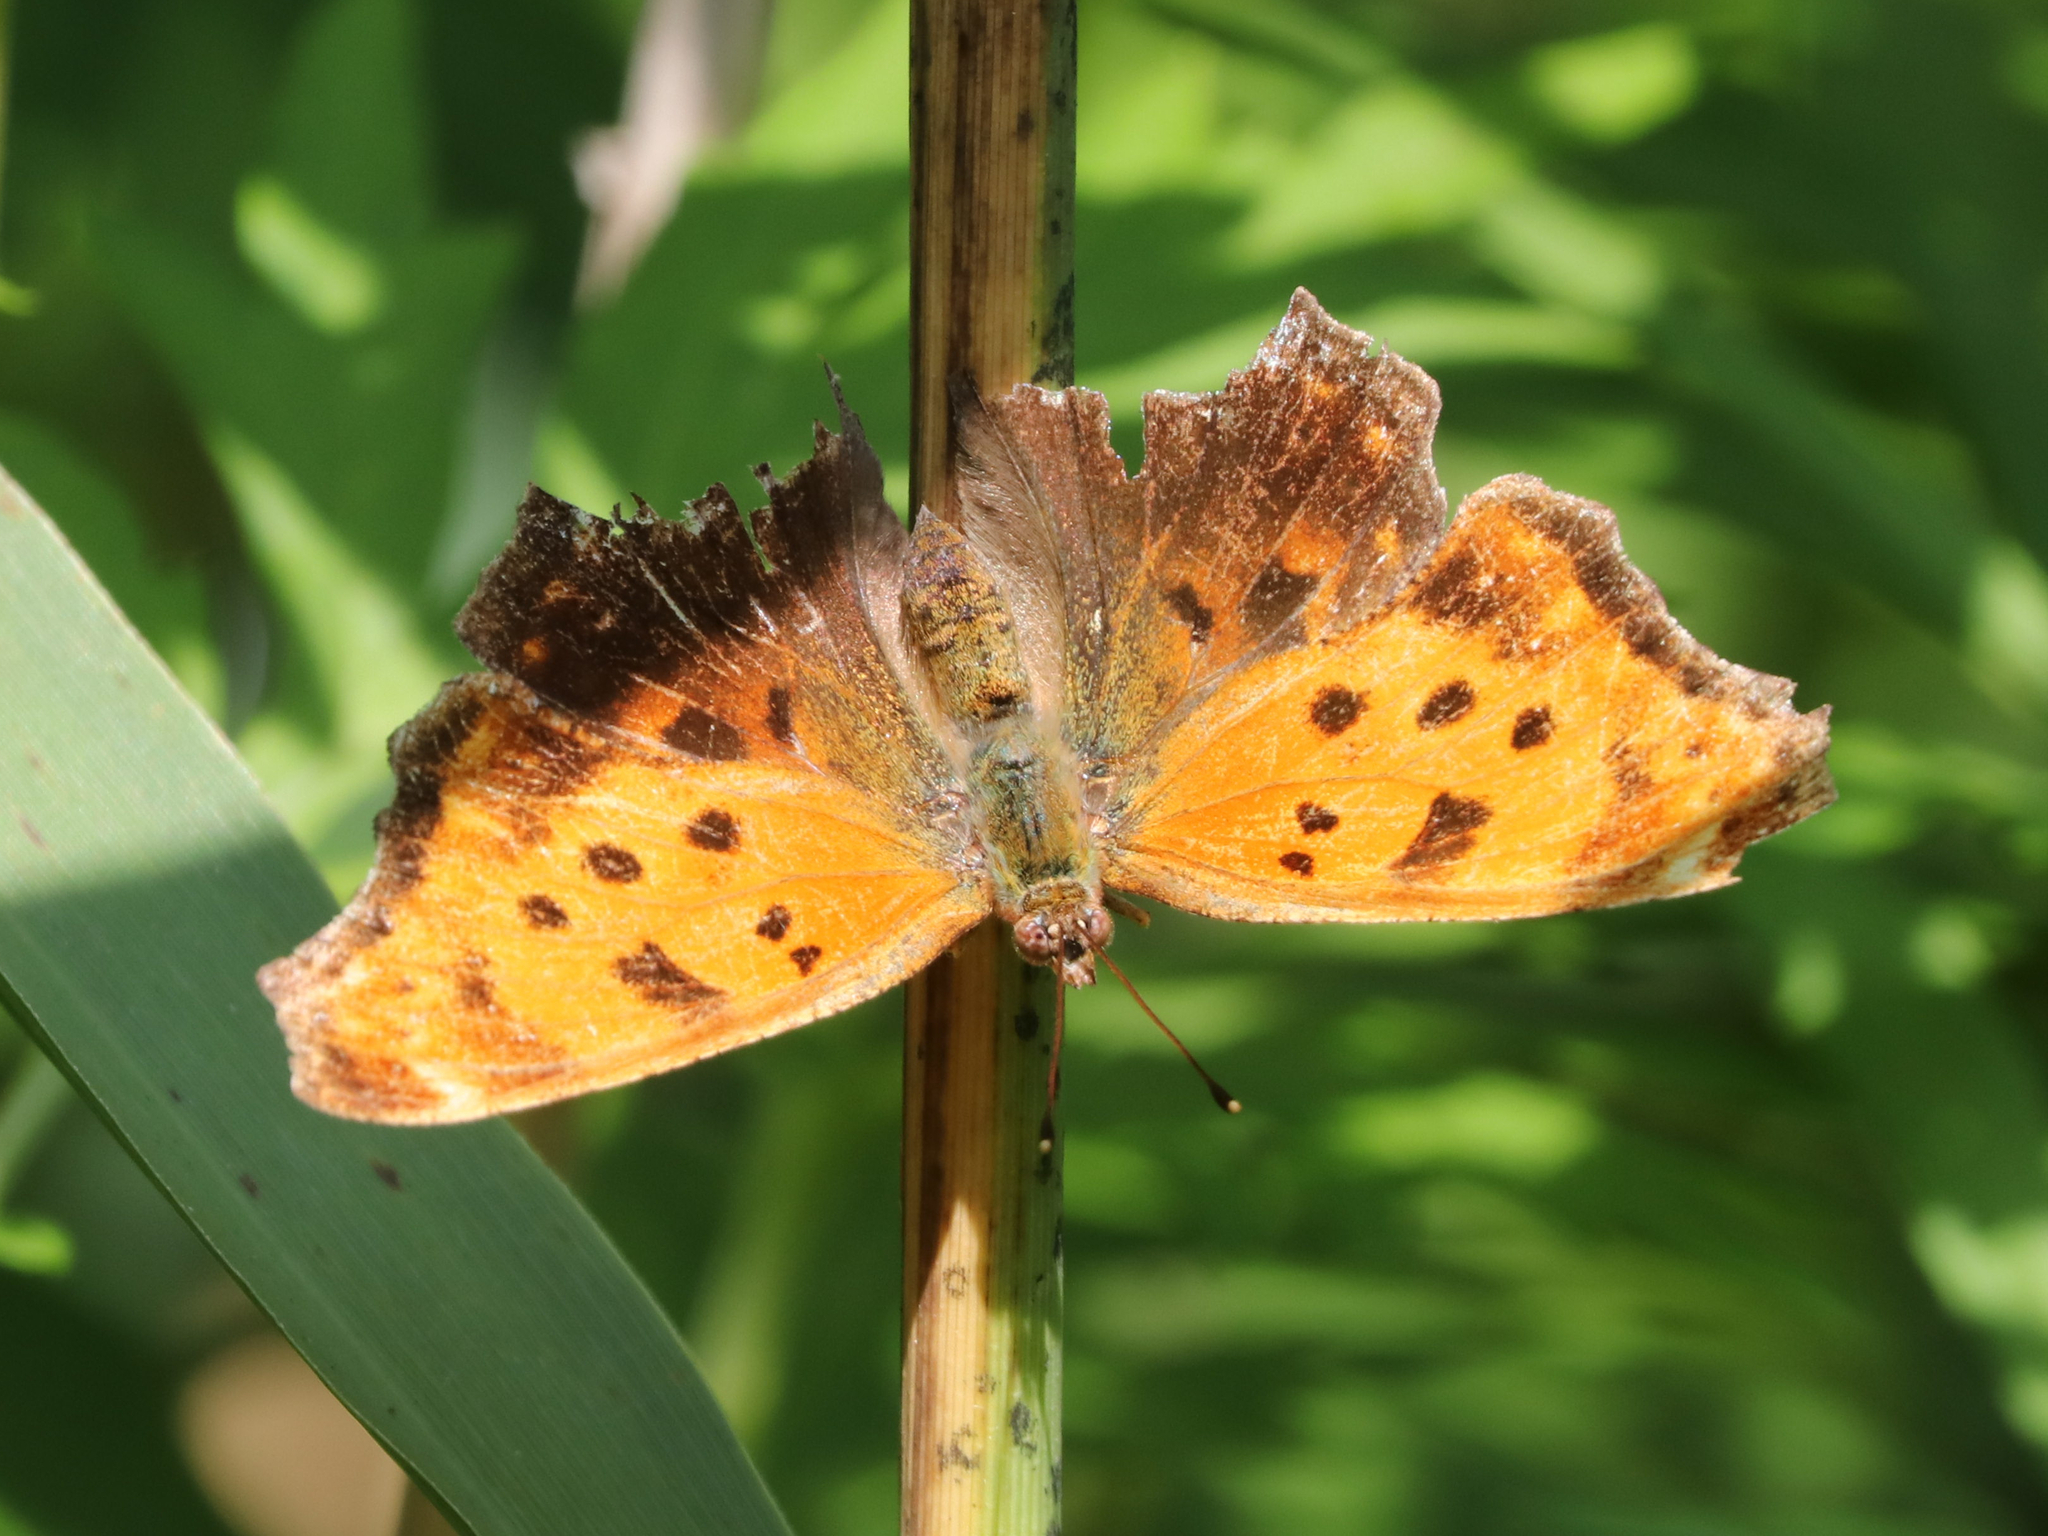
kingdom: Animalia
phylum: Arthropoda
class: Insecta
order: Lepidoptera
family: Nymphalidae
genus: Polygonia
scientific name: Polygonia comma
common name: Eastern comma
